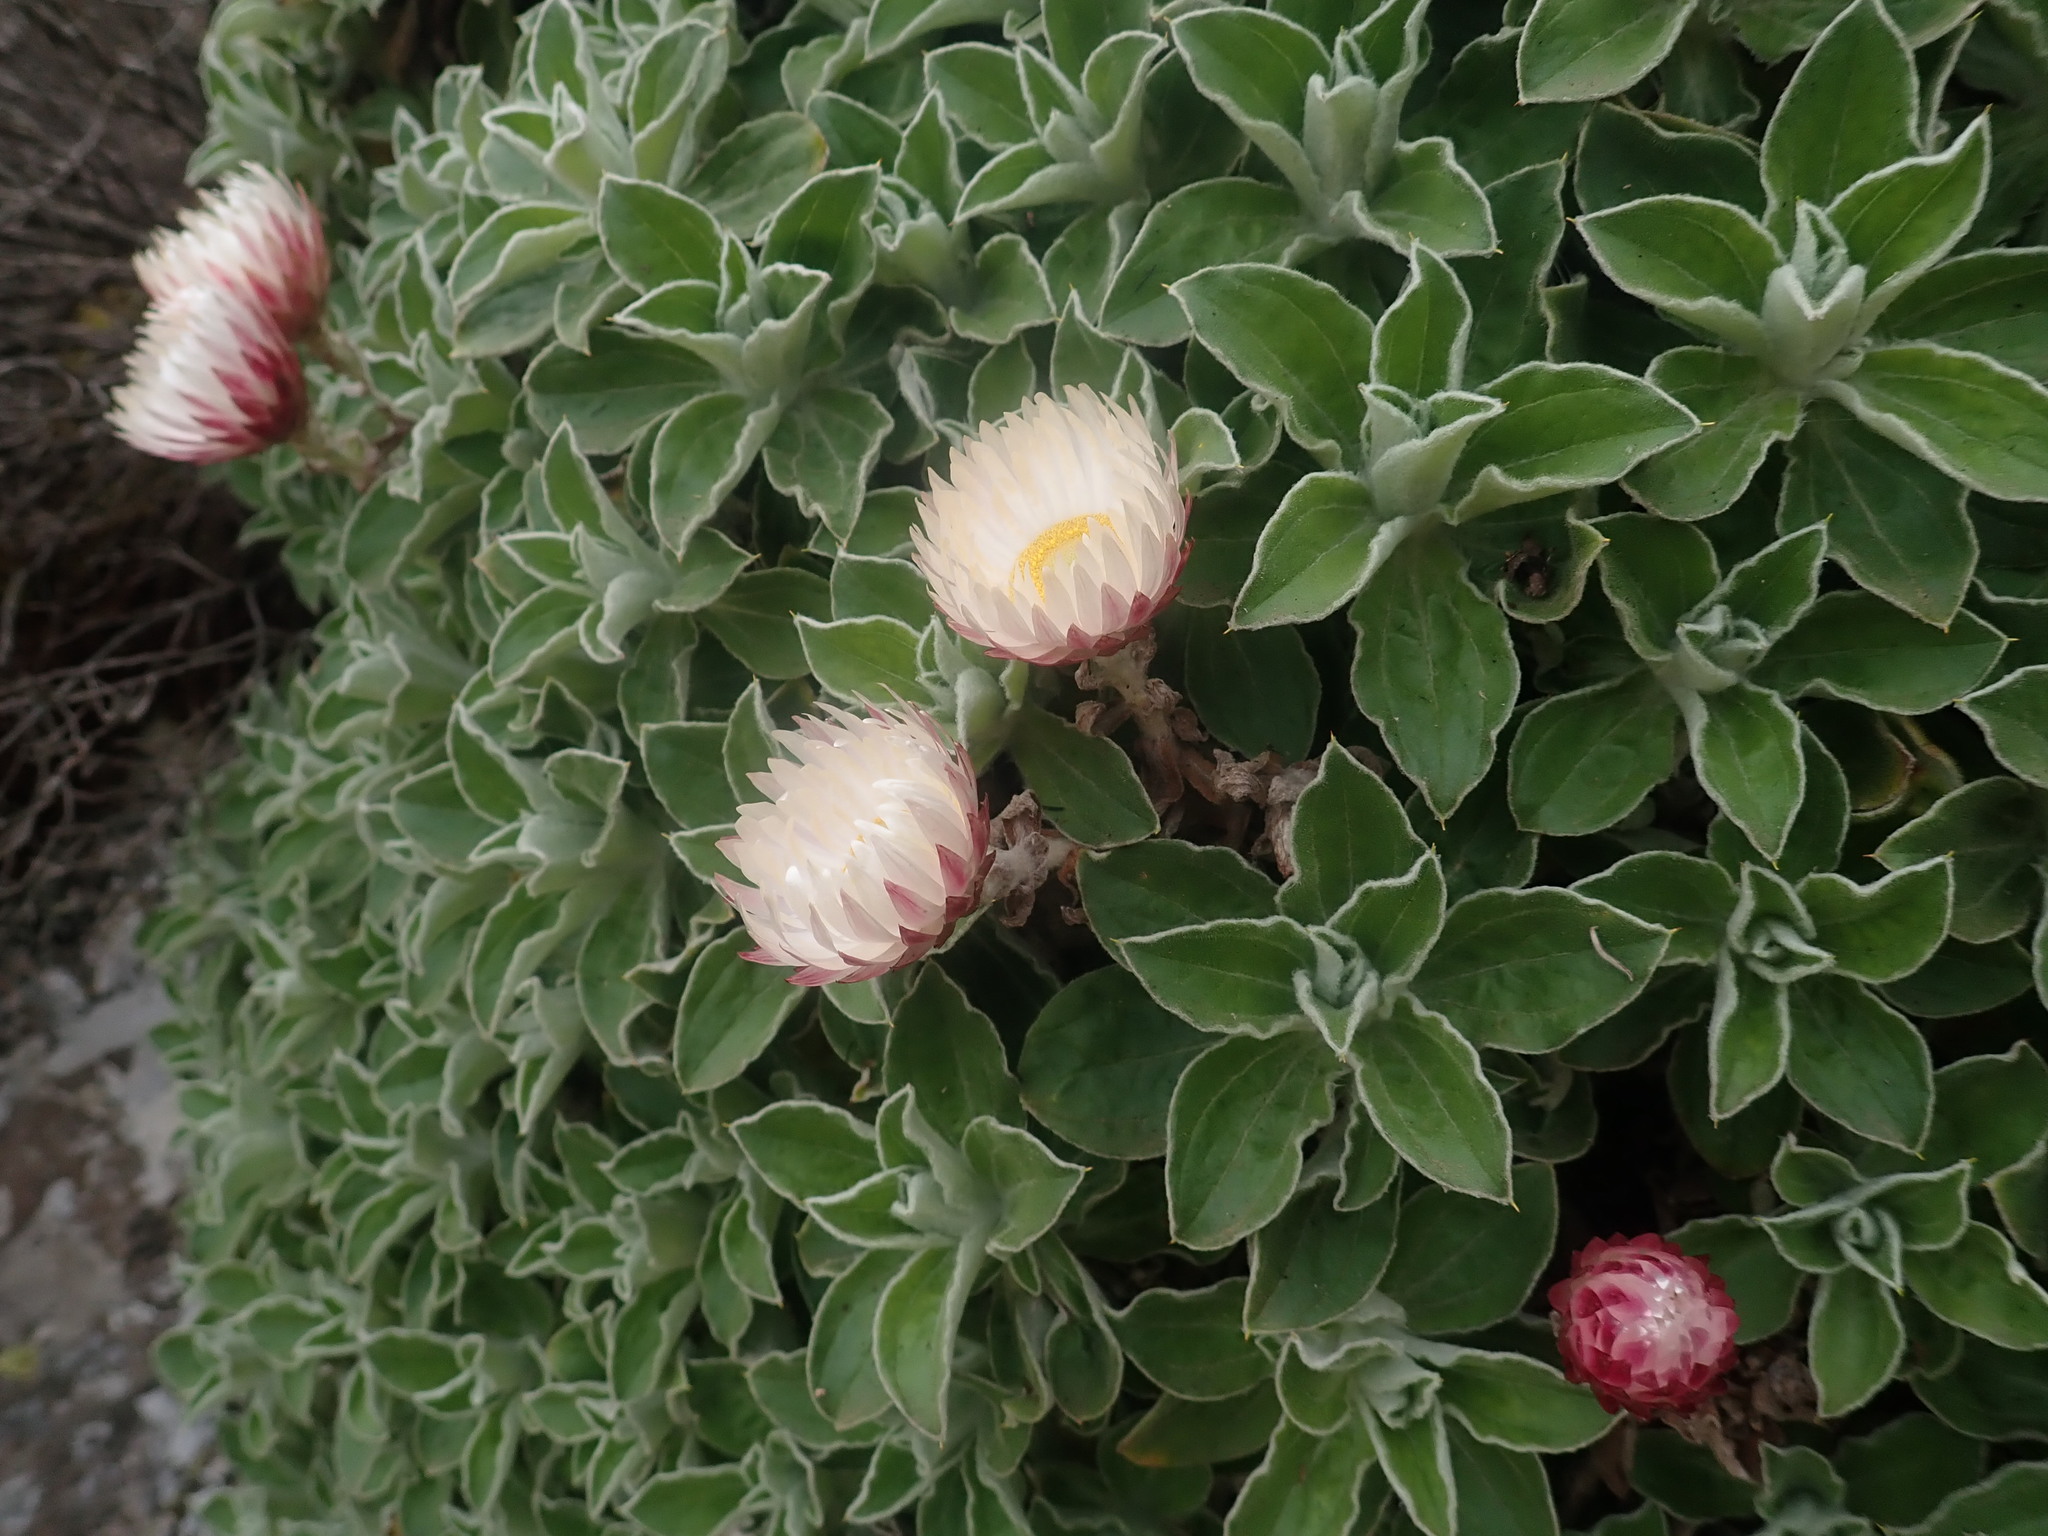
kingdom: Plantae
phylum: Tracheophyta
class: Magnoliopsida
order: Asterales
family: Asteraceae
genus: Helichrysum
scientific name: Helichrysum summo-montanum
